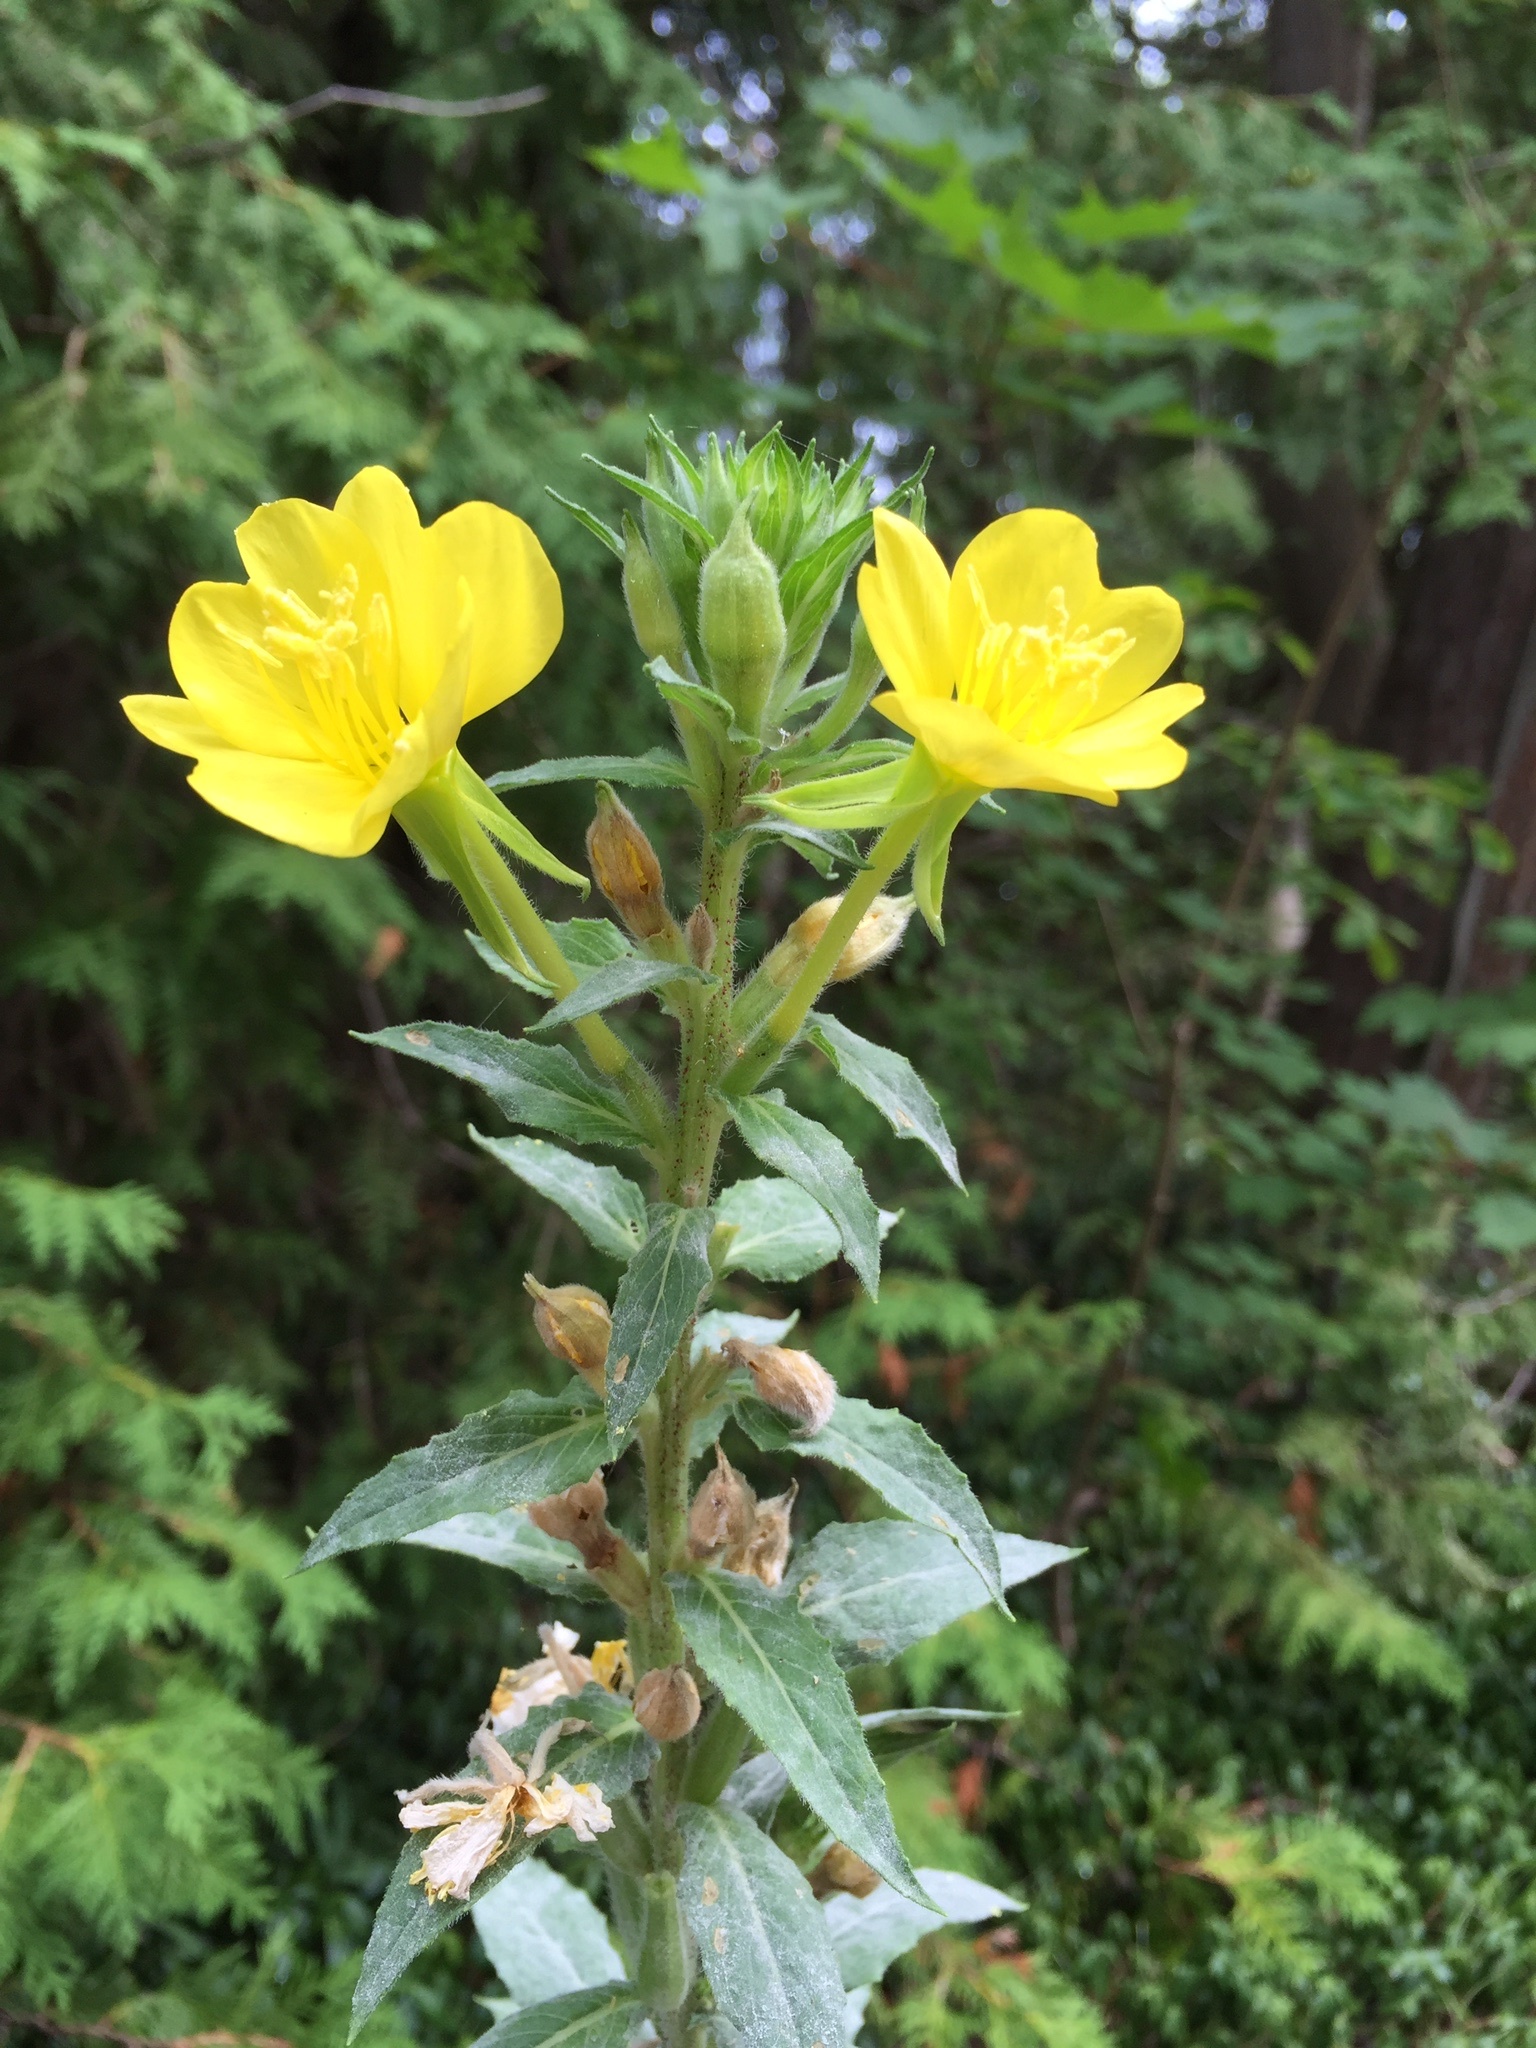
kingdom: Plantae
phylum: Tracheophyta
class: Magnoliopsida
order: Myrtales
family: Onagraceae
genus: Oenothera
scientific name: Oenothera biennis
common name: Common evening-primrose
